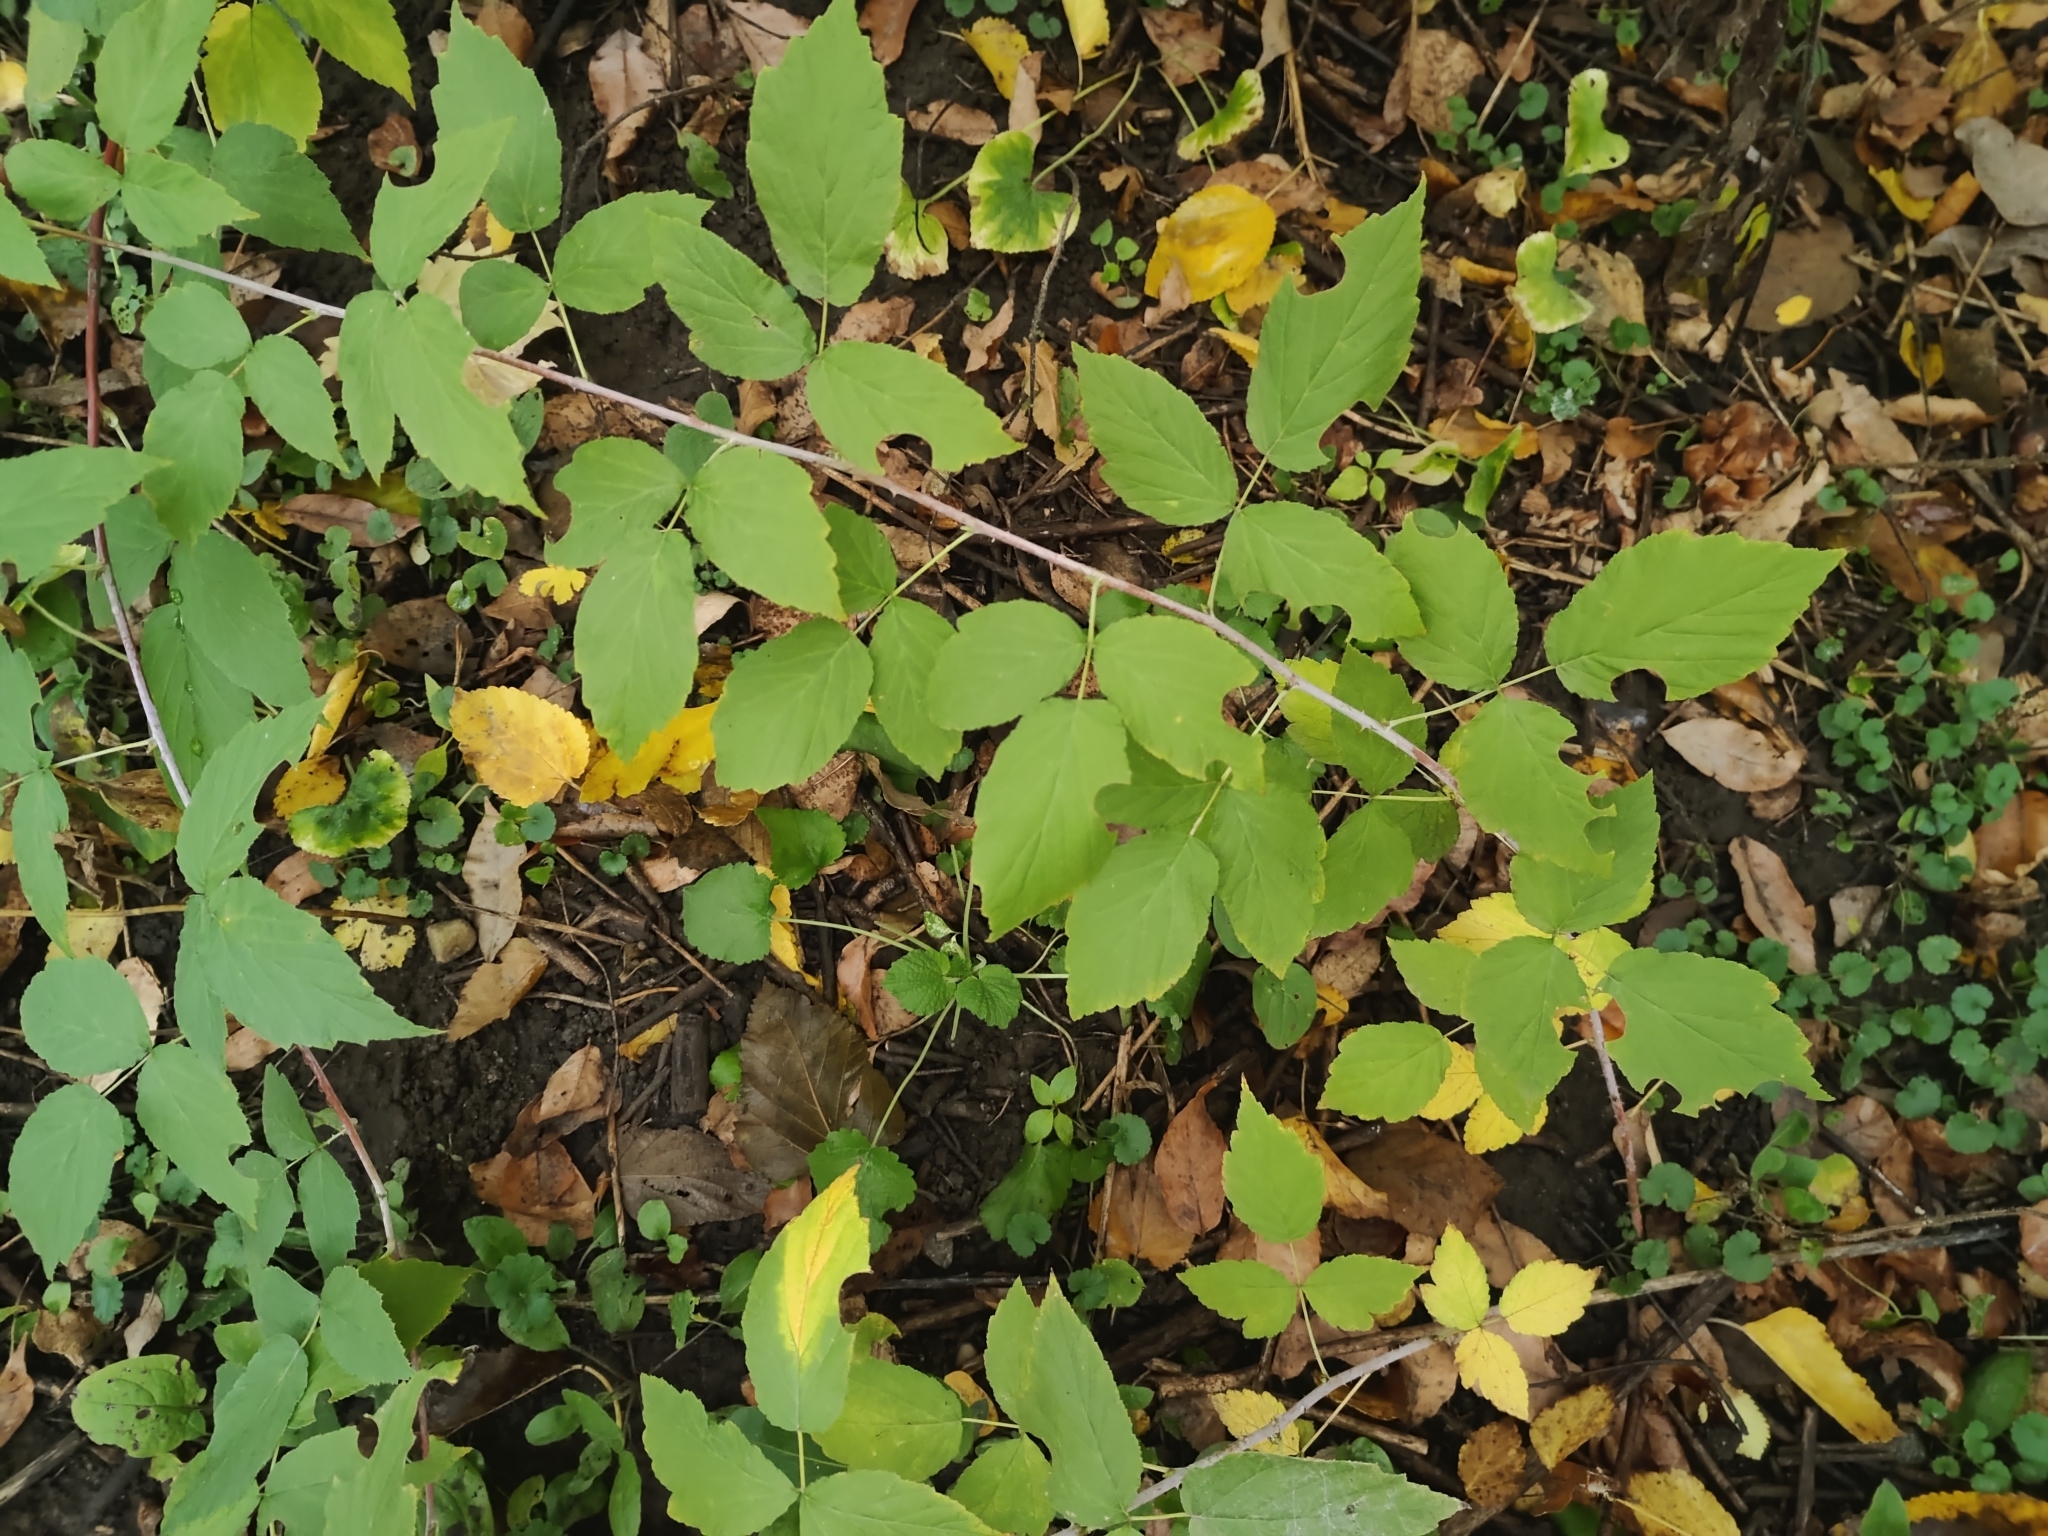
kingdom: Plantae
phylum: Tracheophyta
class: Magnoliopsida
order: Rosales
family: Rosaceae
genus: Rubus
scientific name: Rubus occidentalis
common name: Black raspberry
